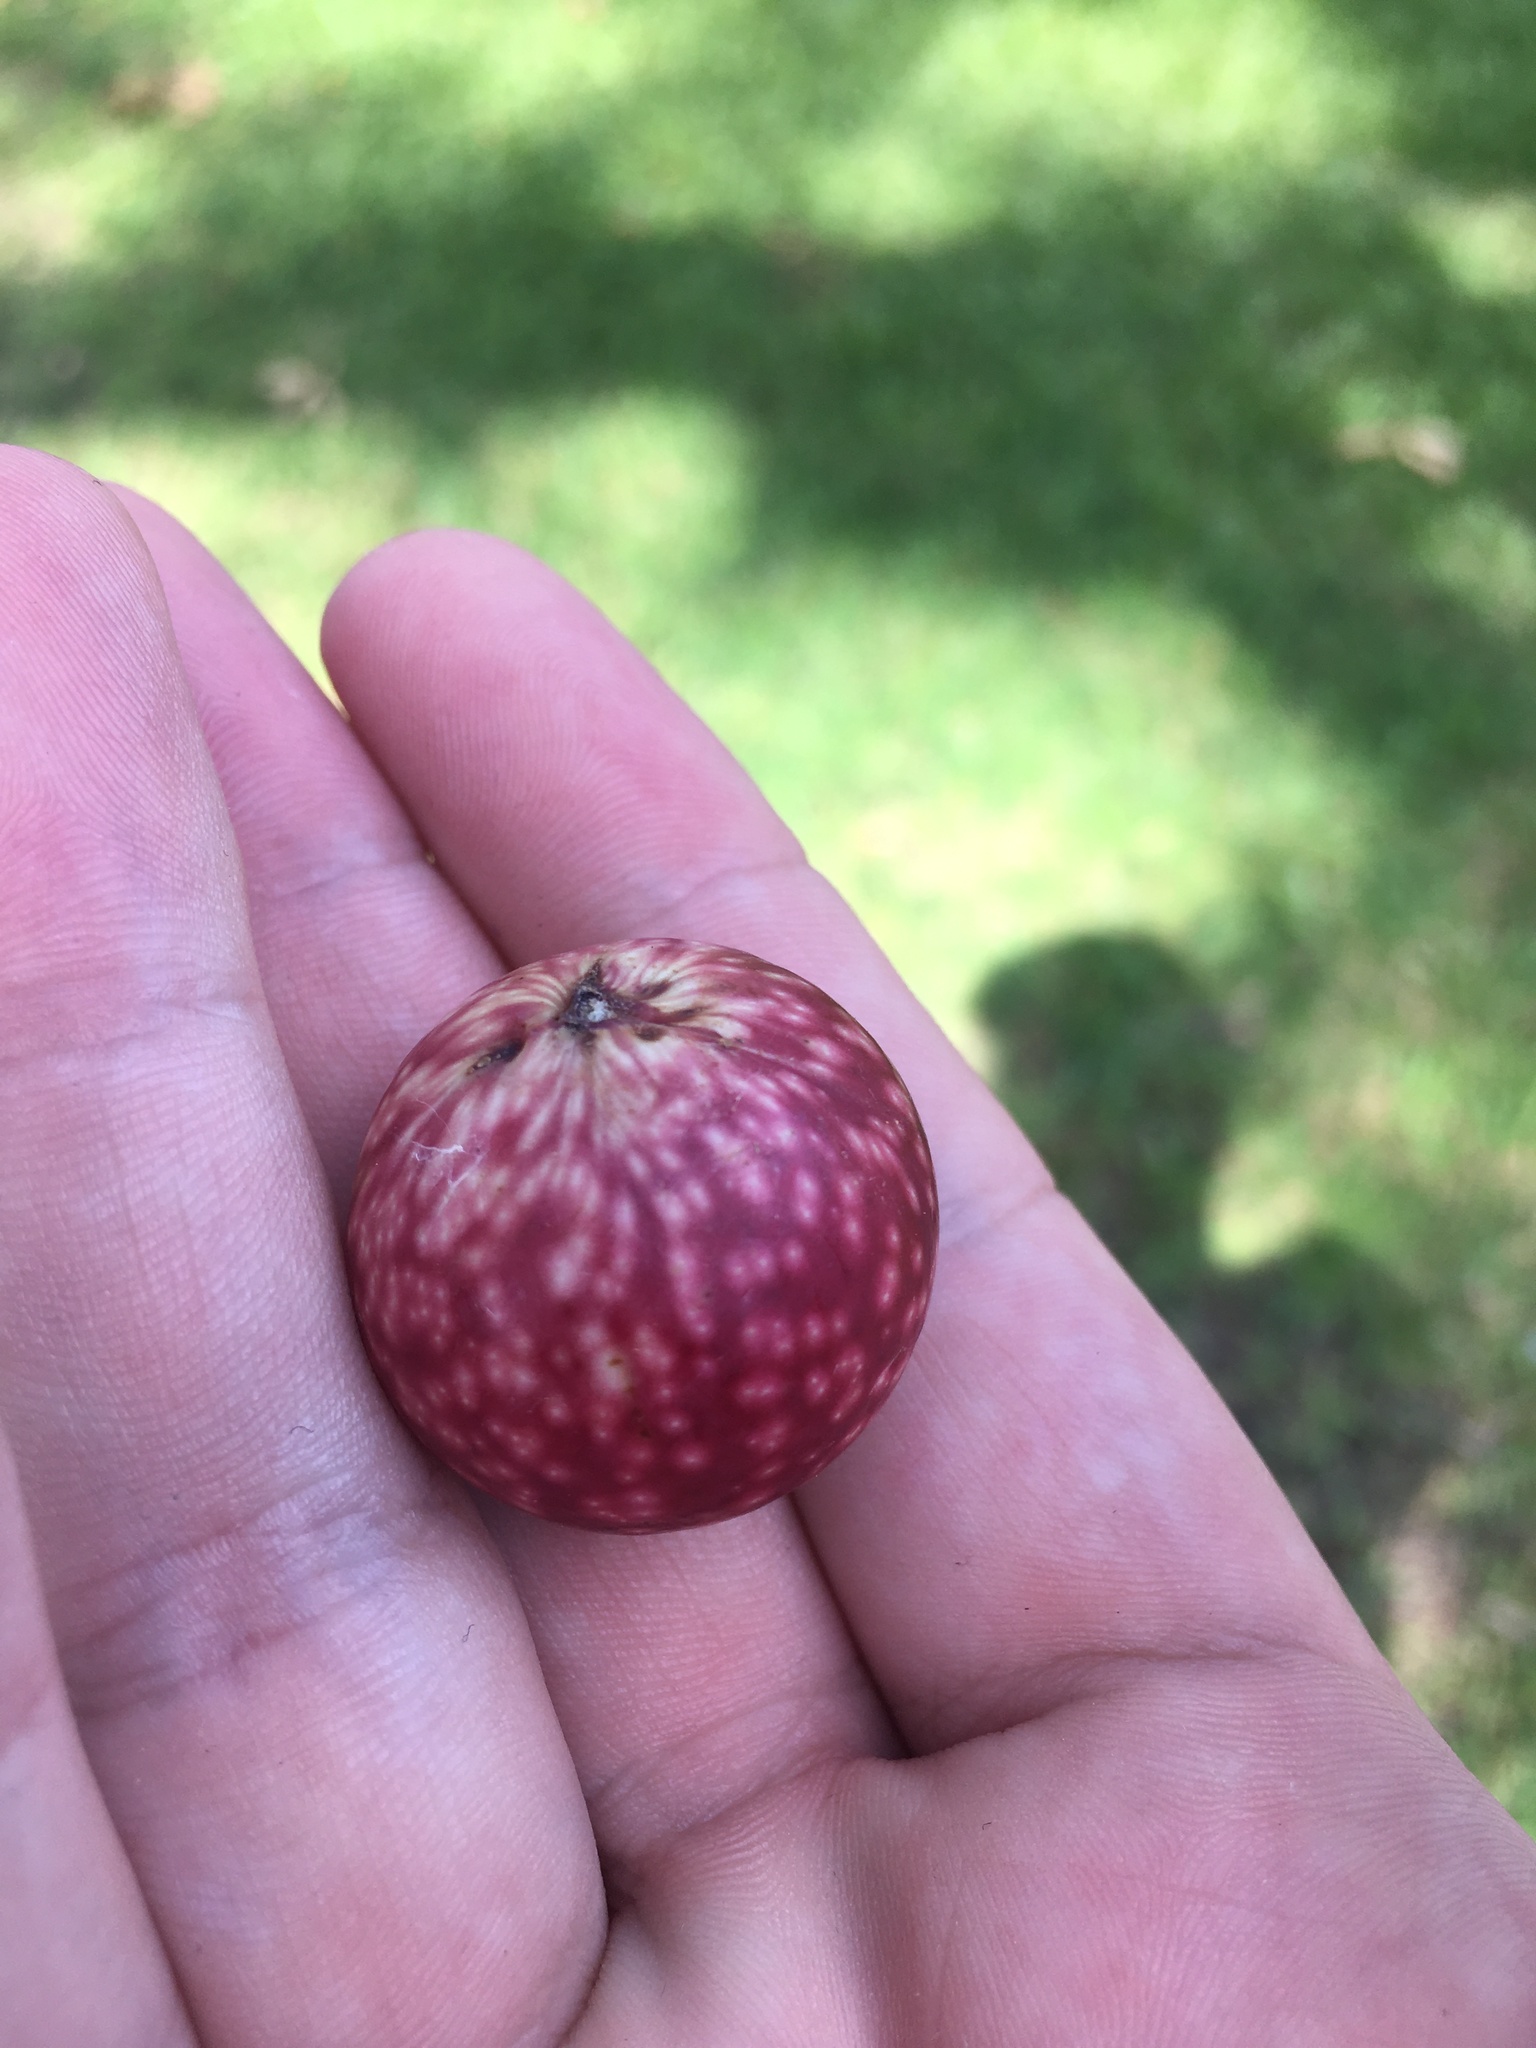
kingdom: Animalia
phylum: Arthropoda
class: Insecta
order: Hymenoptera
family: Cynipidae
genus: Amphibolips
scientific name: Amphibolips
